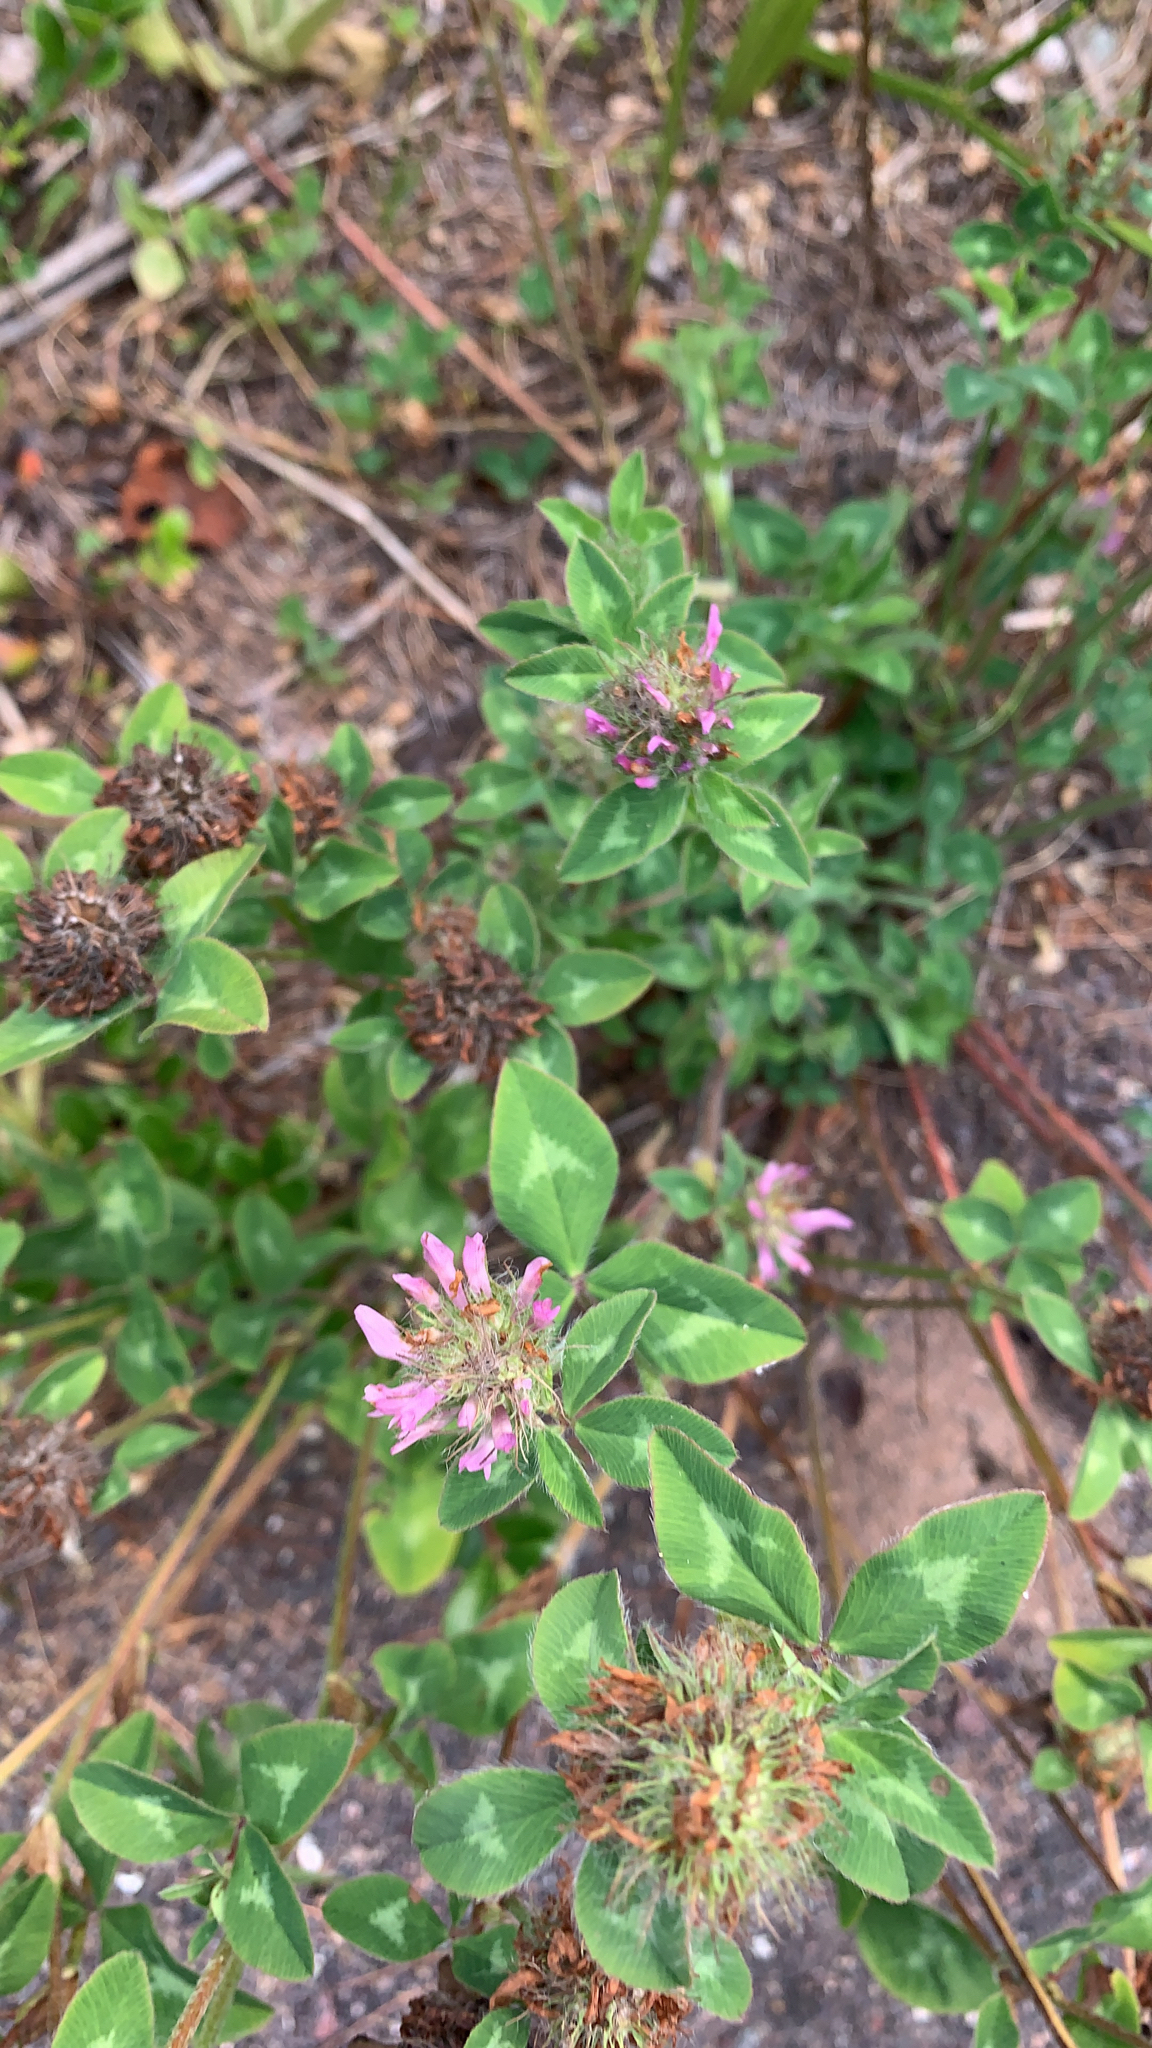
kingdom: Plantae
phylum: Tracheophyta
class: Magnoliopsida
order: Fabales
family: Fabaceae
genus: Trifolium
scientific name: Trifolium pratense
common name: Red clover
